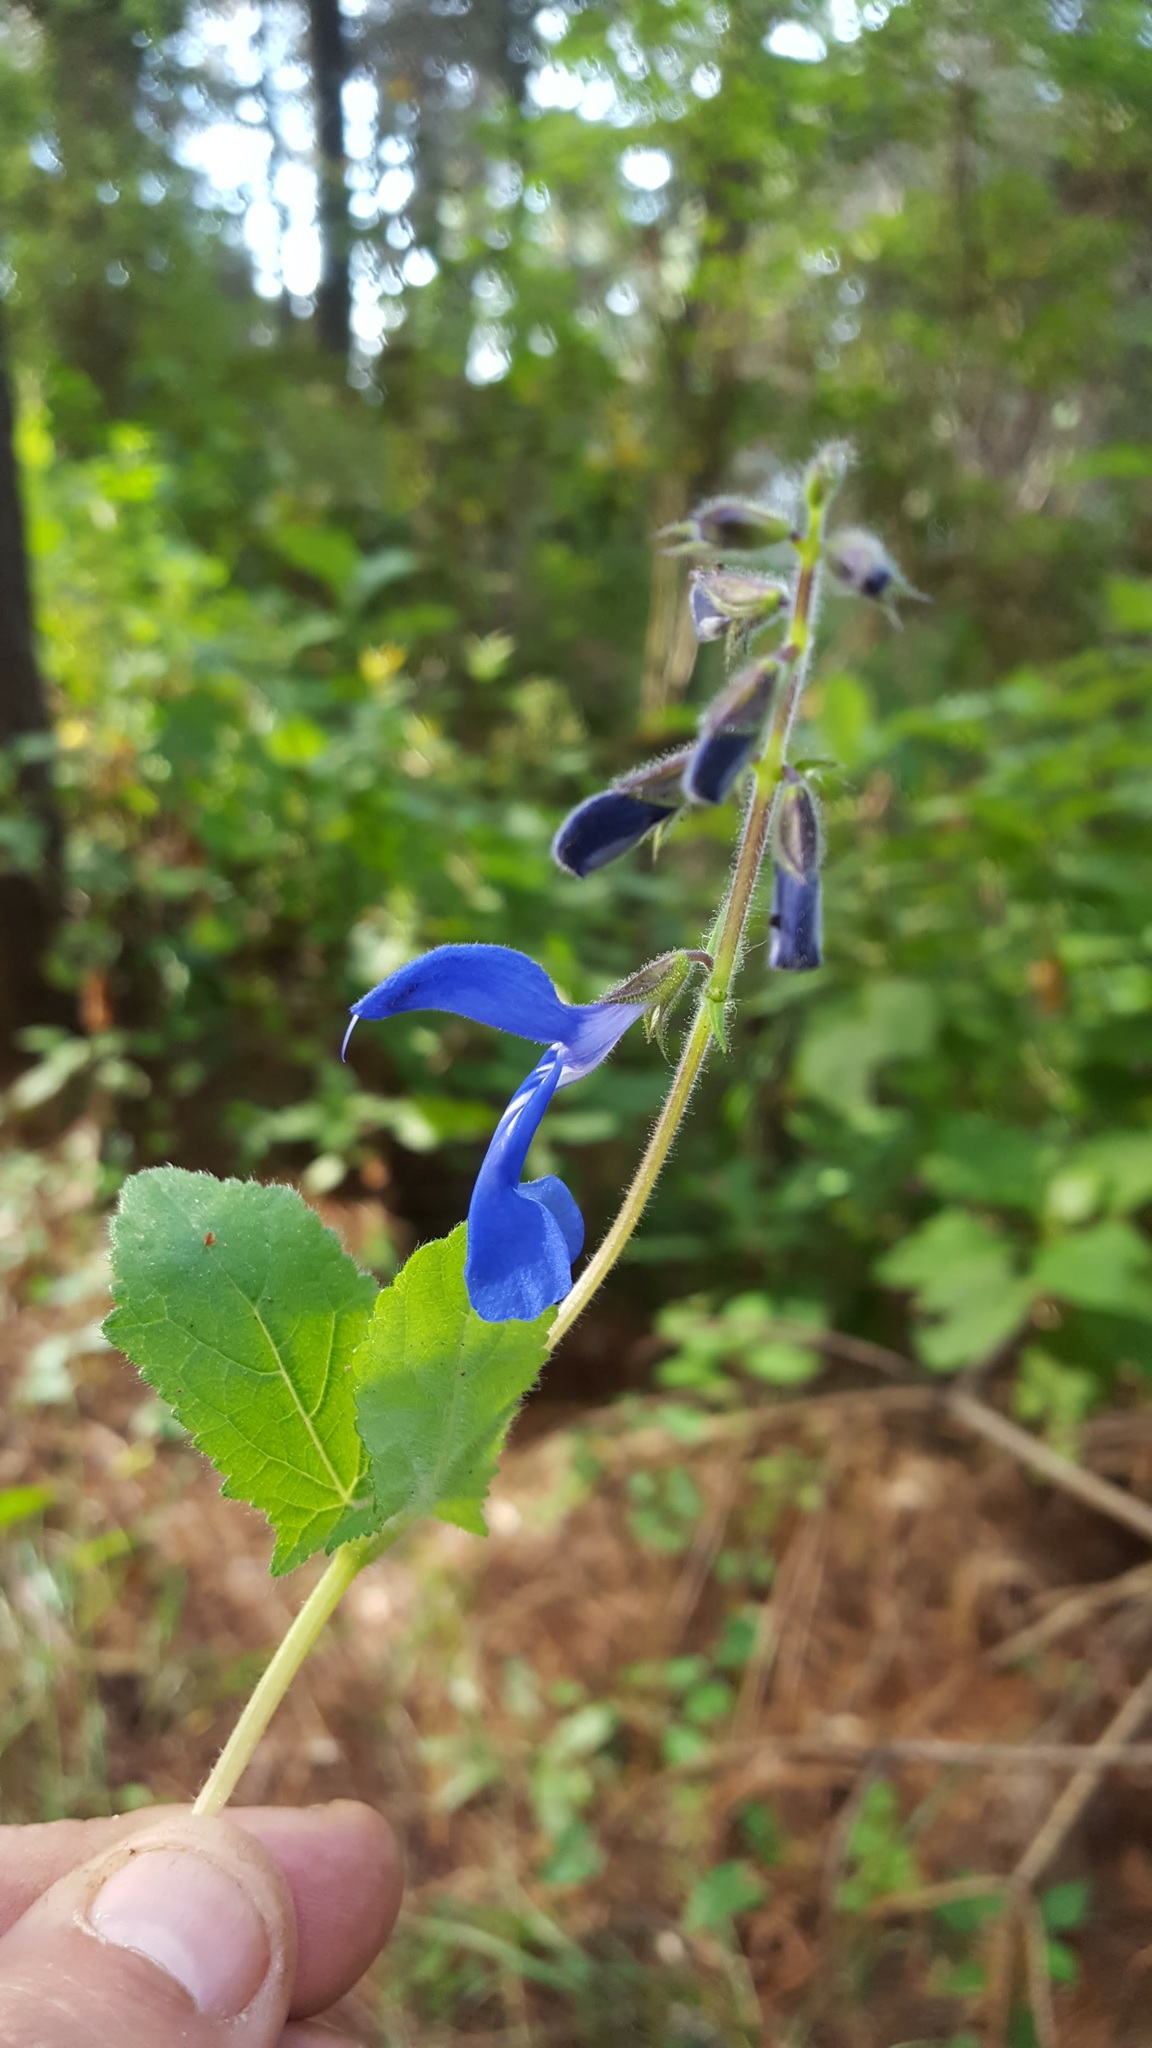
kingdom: Plantae
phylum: Tracheophyta
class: Magnoliopsida
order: Lamiales
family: Lamiaceae
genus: Salvia
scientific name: Salvia patens
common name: Blue sage
